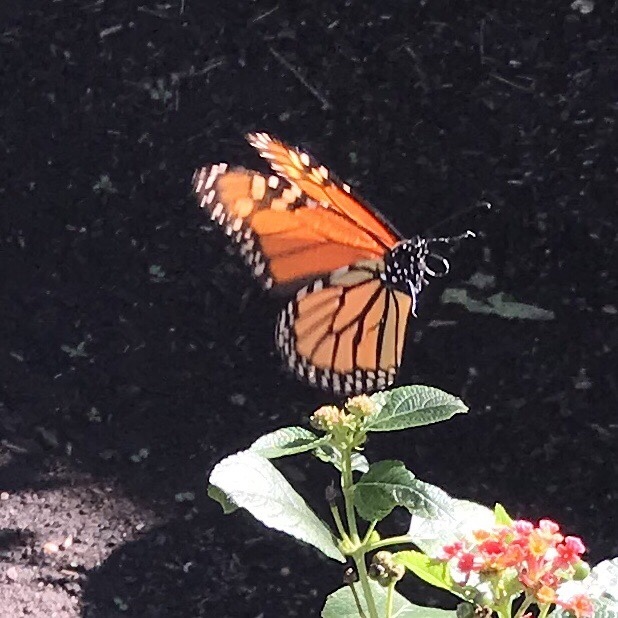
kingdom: Animalia
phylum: Arthropoda
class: Insecta
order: Lepidoptera
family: Nymphalidae
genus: Danaus
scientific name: Danaus plexippus
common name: Monarch
